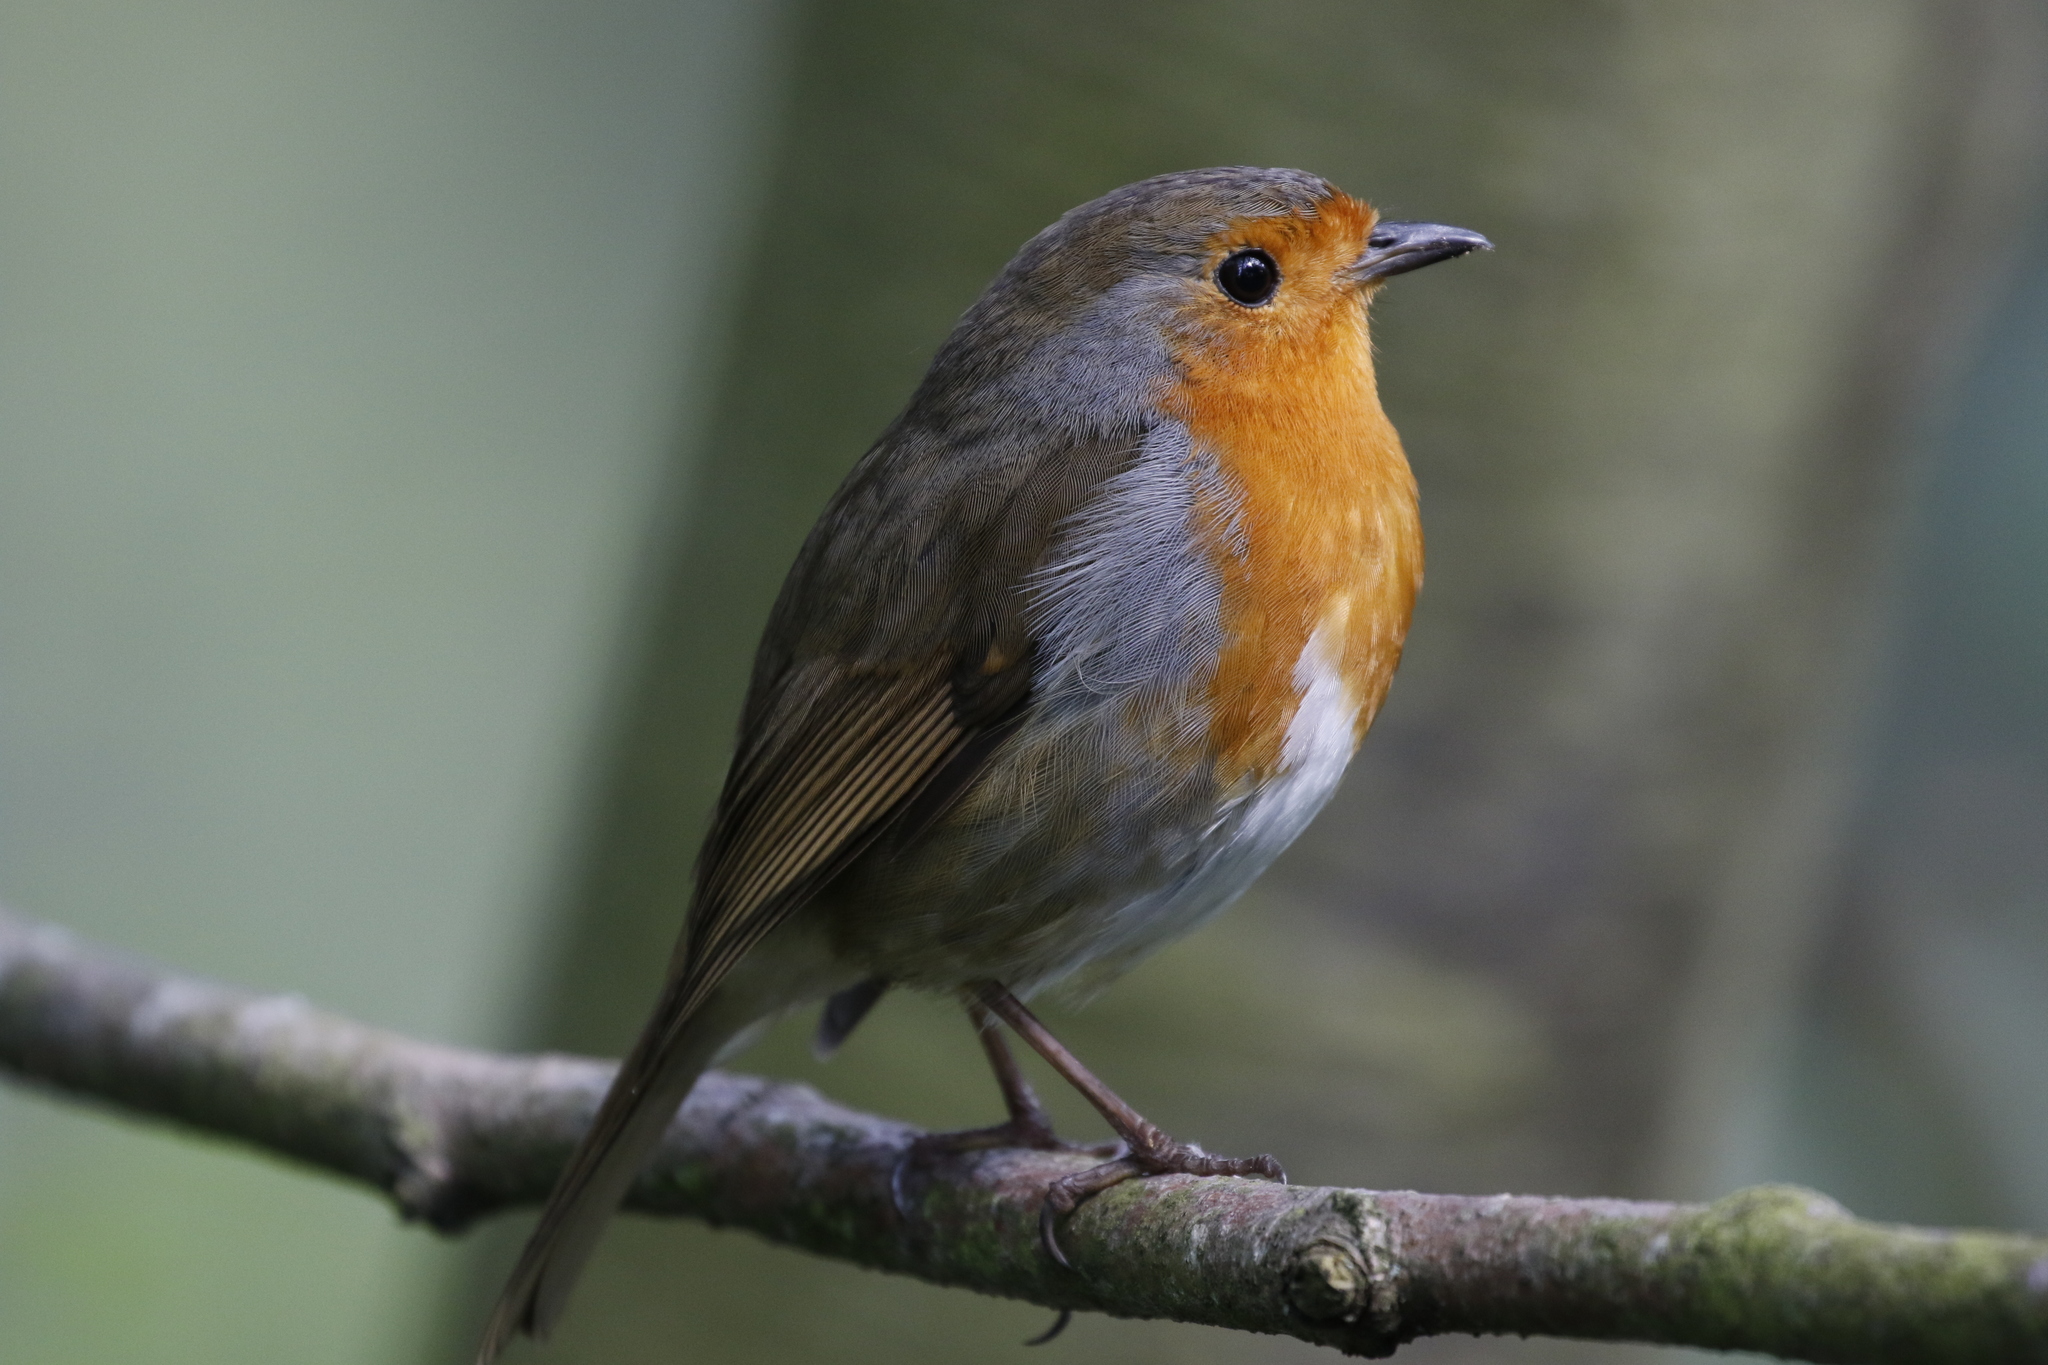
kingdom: Animalia
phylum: Chordata
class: Aves
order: Passeriformes
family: Muscicapidae
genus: Erithacus
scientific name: Erithacus rubecula
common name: European robin
